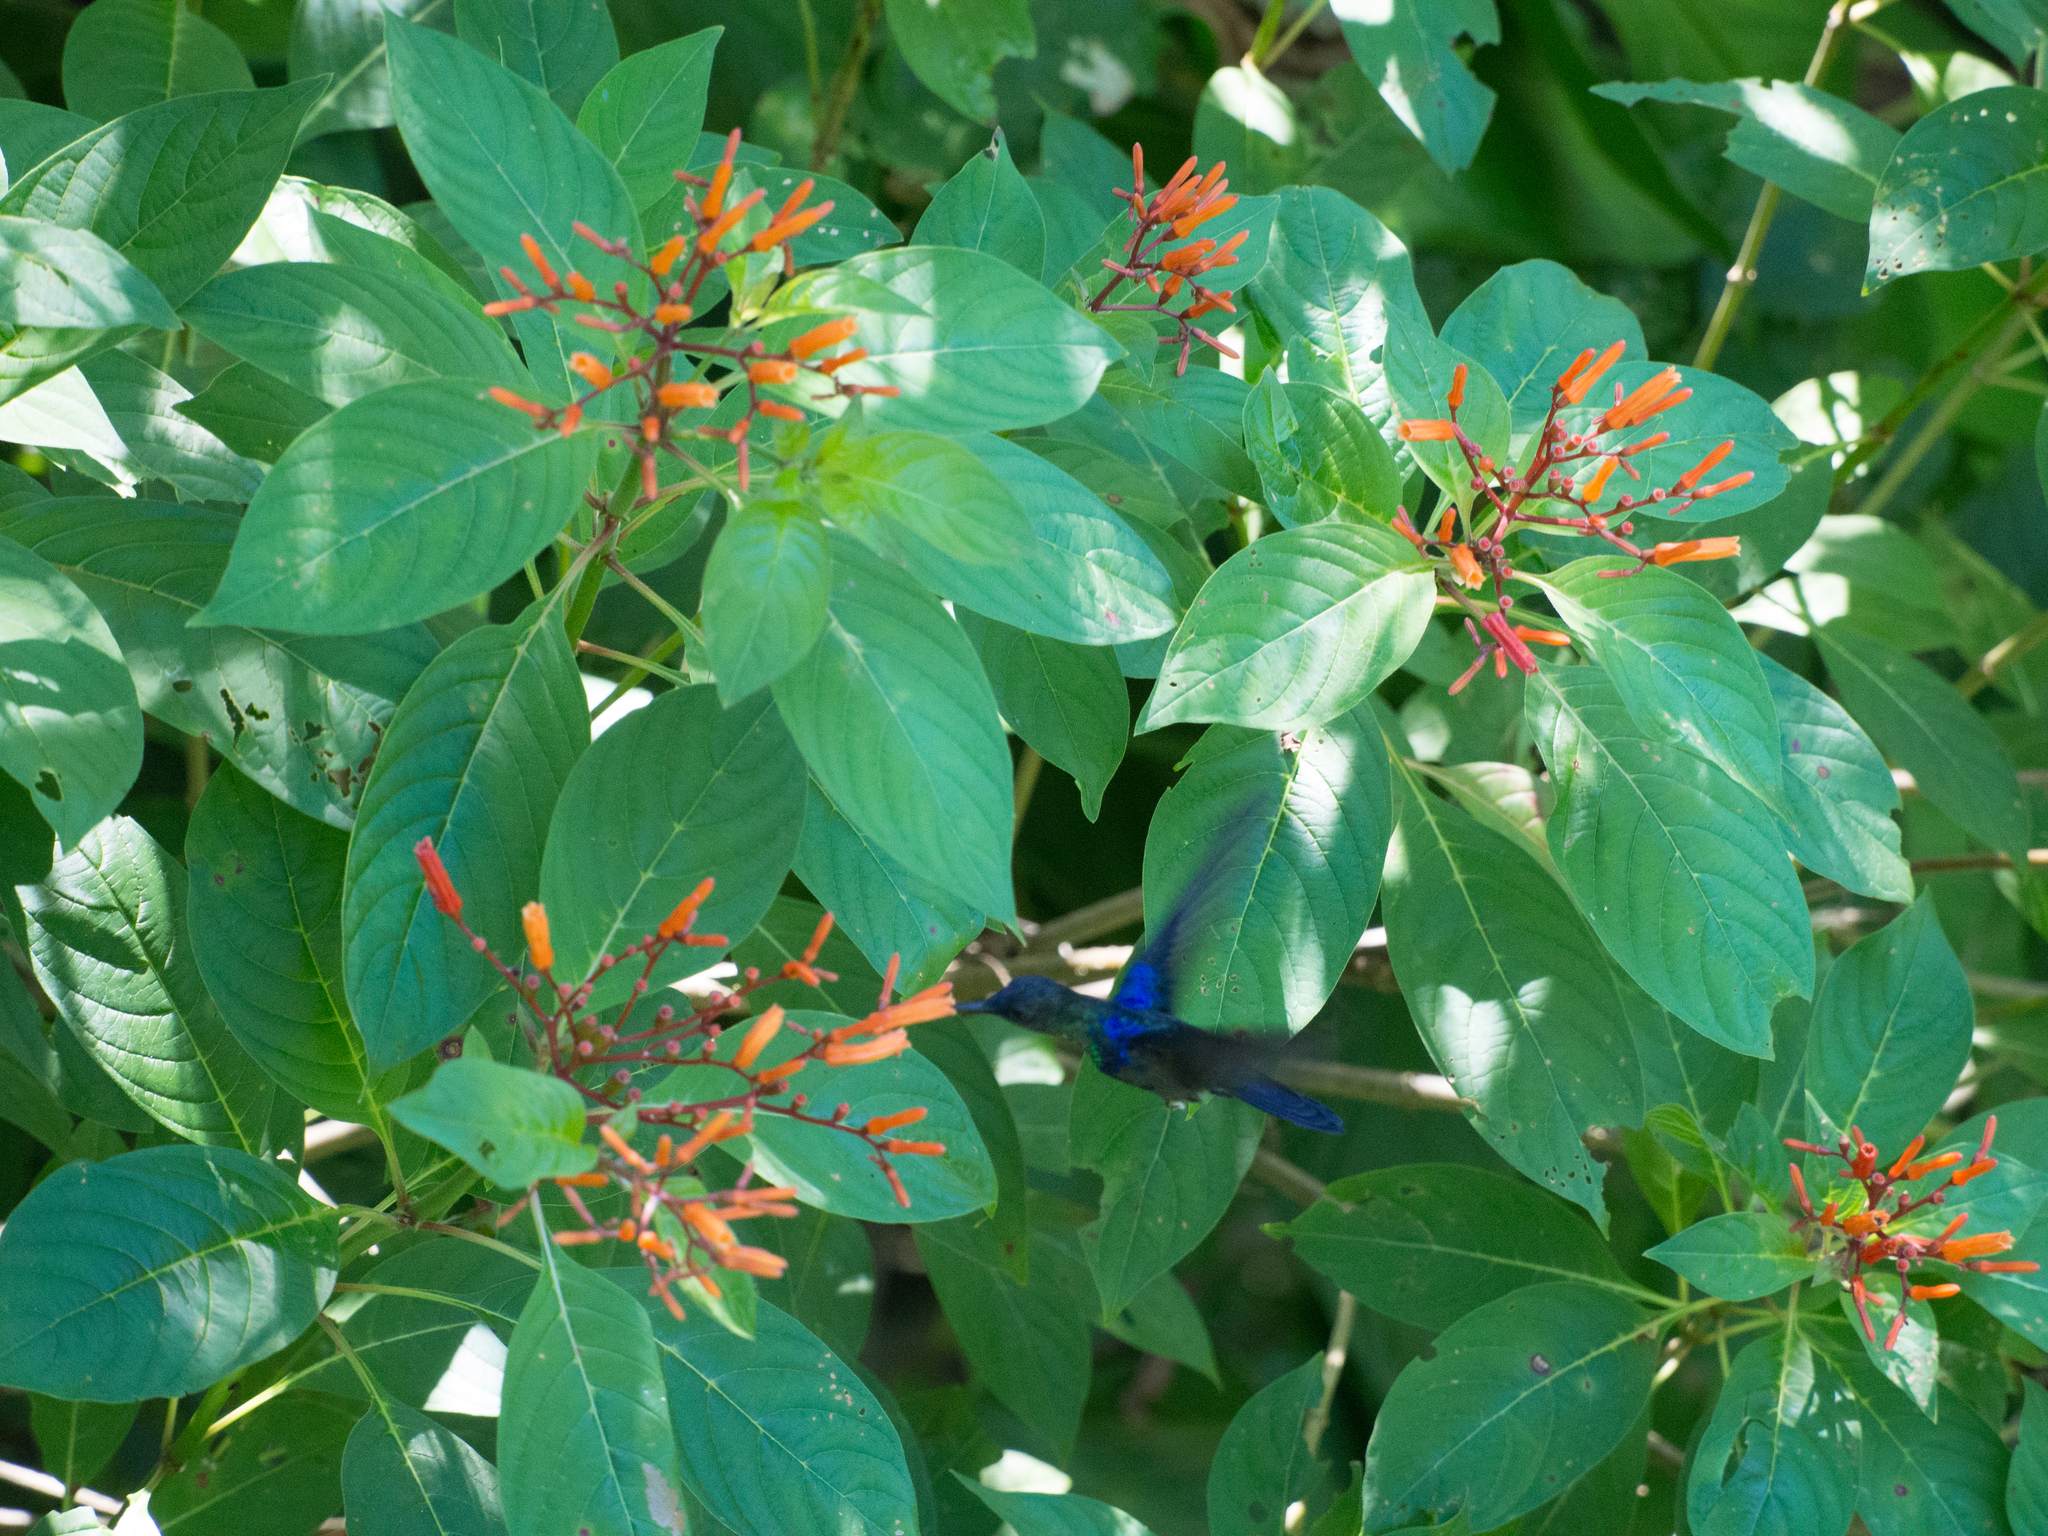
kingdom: Plantae
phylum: Tracheophyta
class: Magnoliopsida
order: Gentianales
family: Rubiaceae
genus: Hamelia
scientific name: Hamelia patens
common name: Redhead
